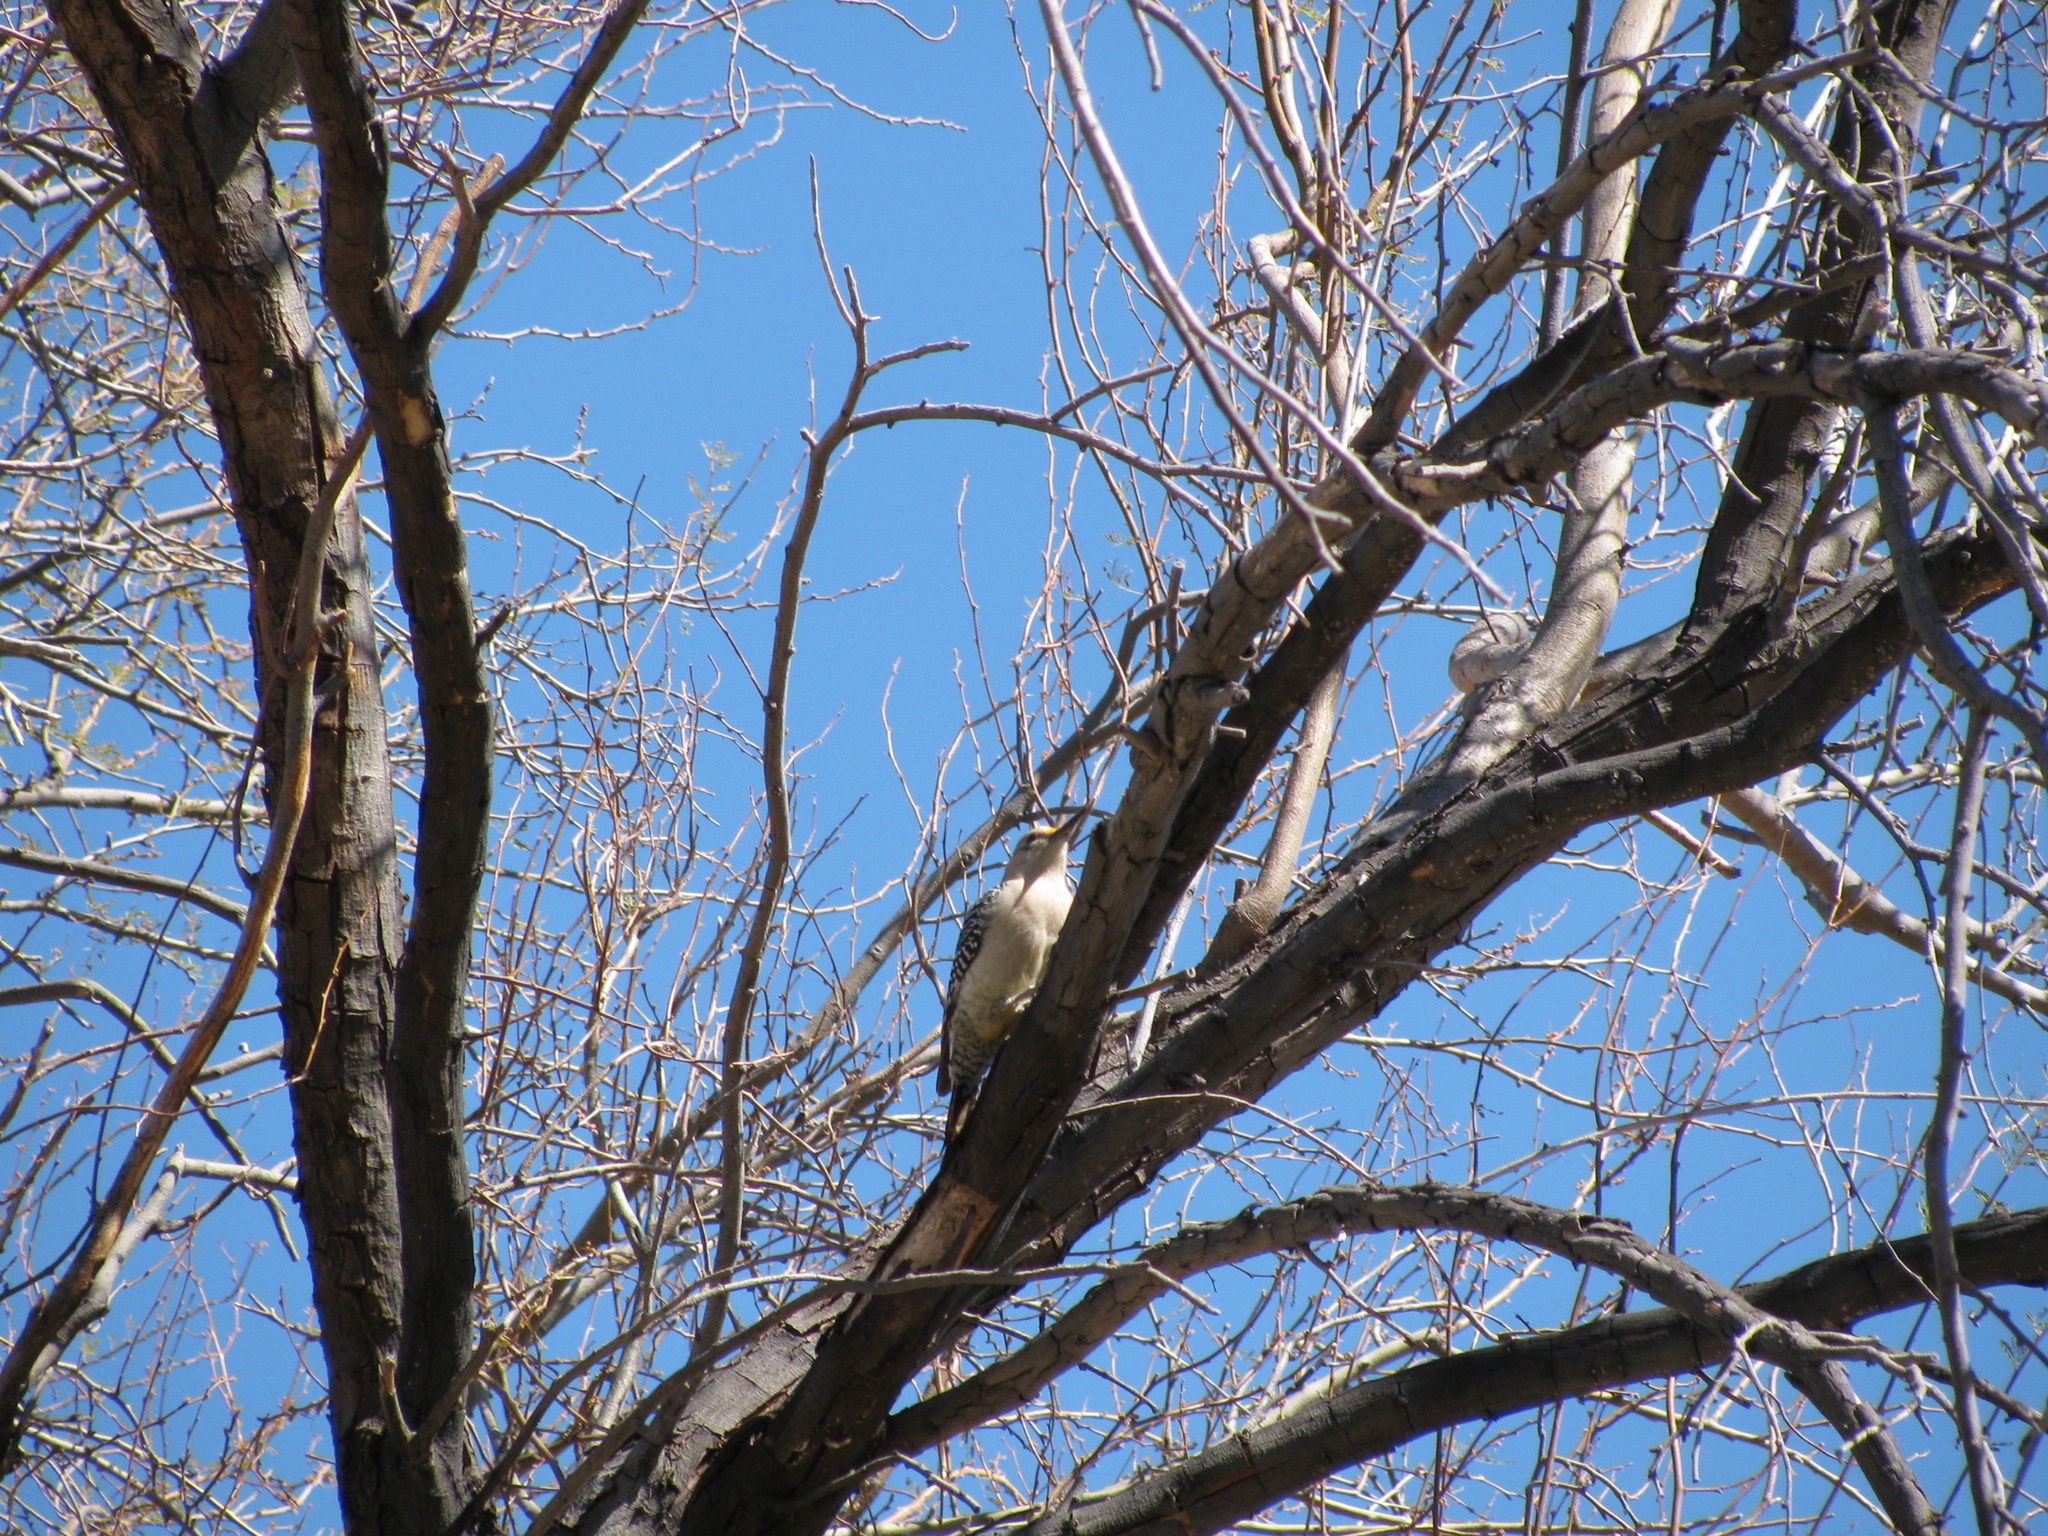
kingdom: Animalia
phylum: Chordata
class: Aves
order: Piciformes
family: Picidae
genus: Melanerpes
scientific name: Melanerpes aurifrons
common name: Golden-fronted woodpecker
